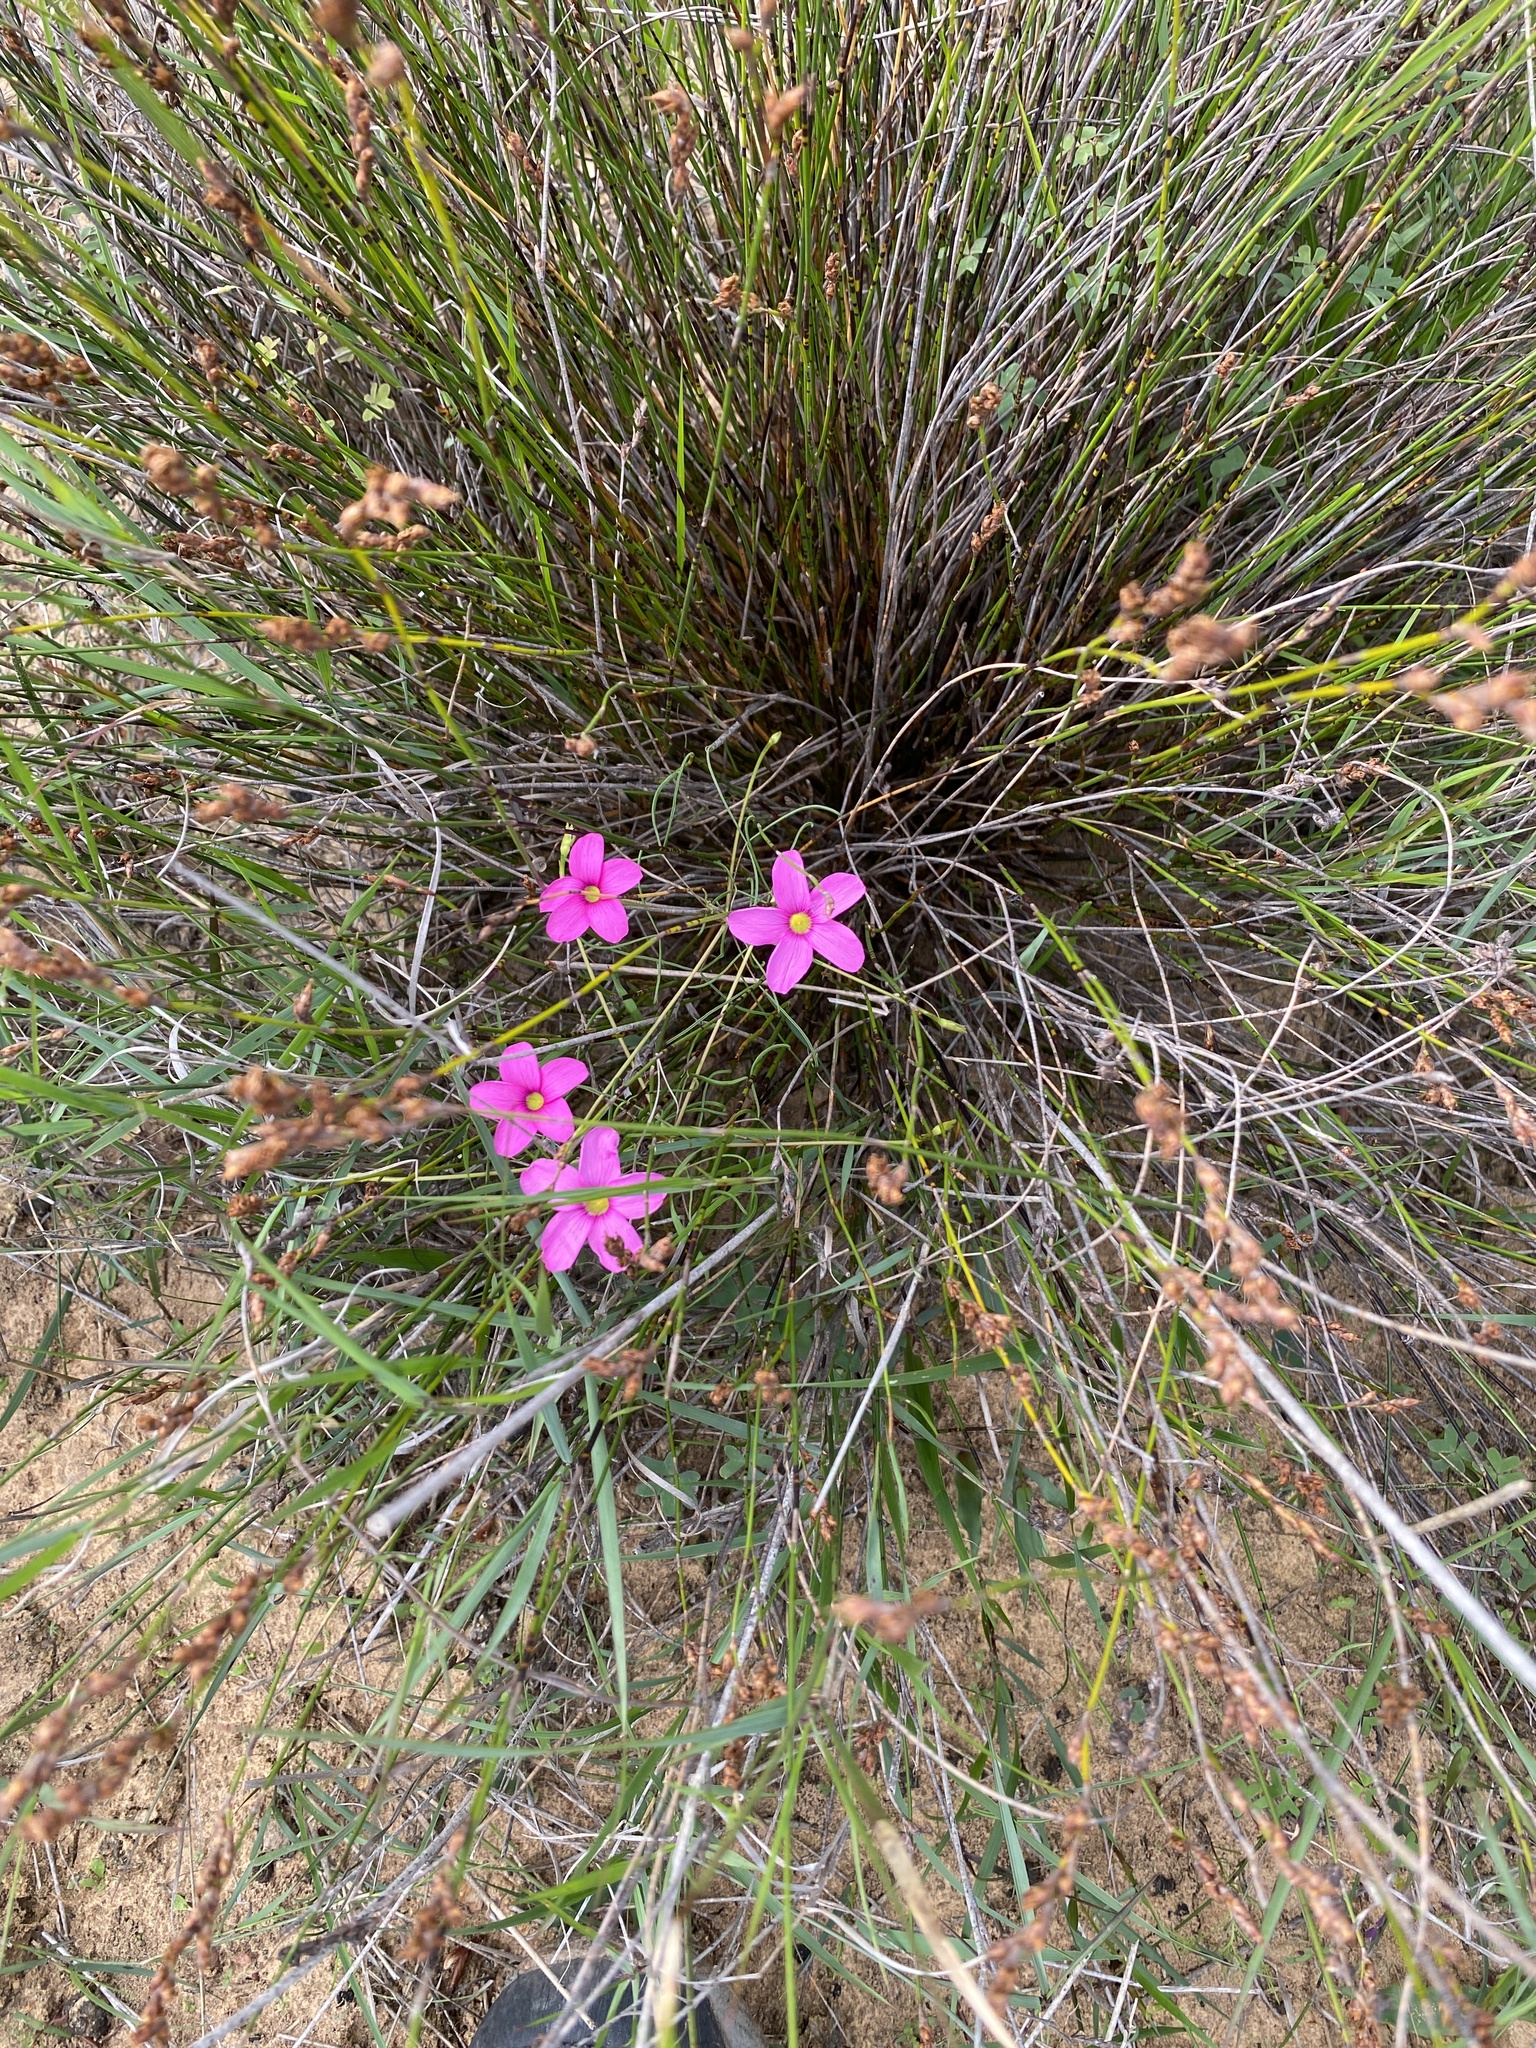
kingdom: Plantae
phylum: Tracheophyta
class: Magnoliopsida
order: Oxalidales
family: Oxalidaceae
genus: Oxalis
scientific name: Oxalis polyphylla
